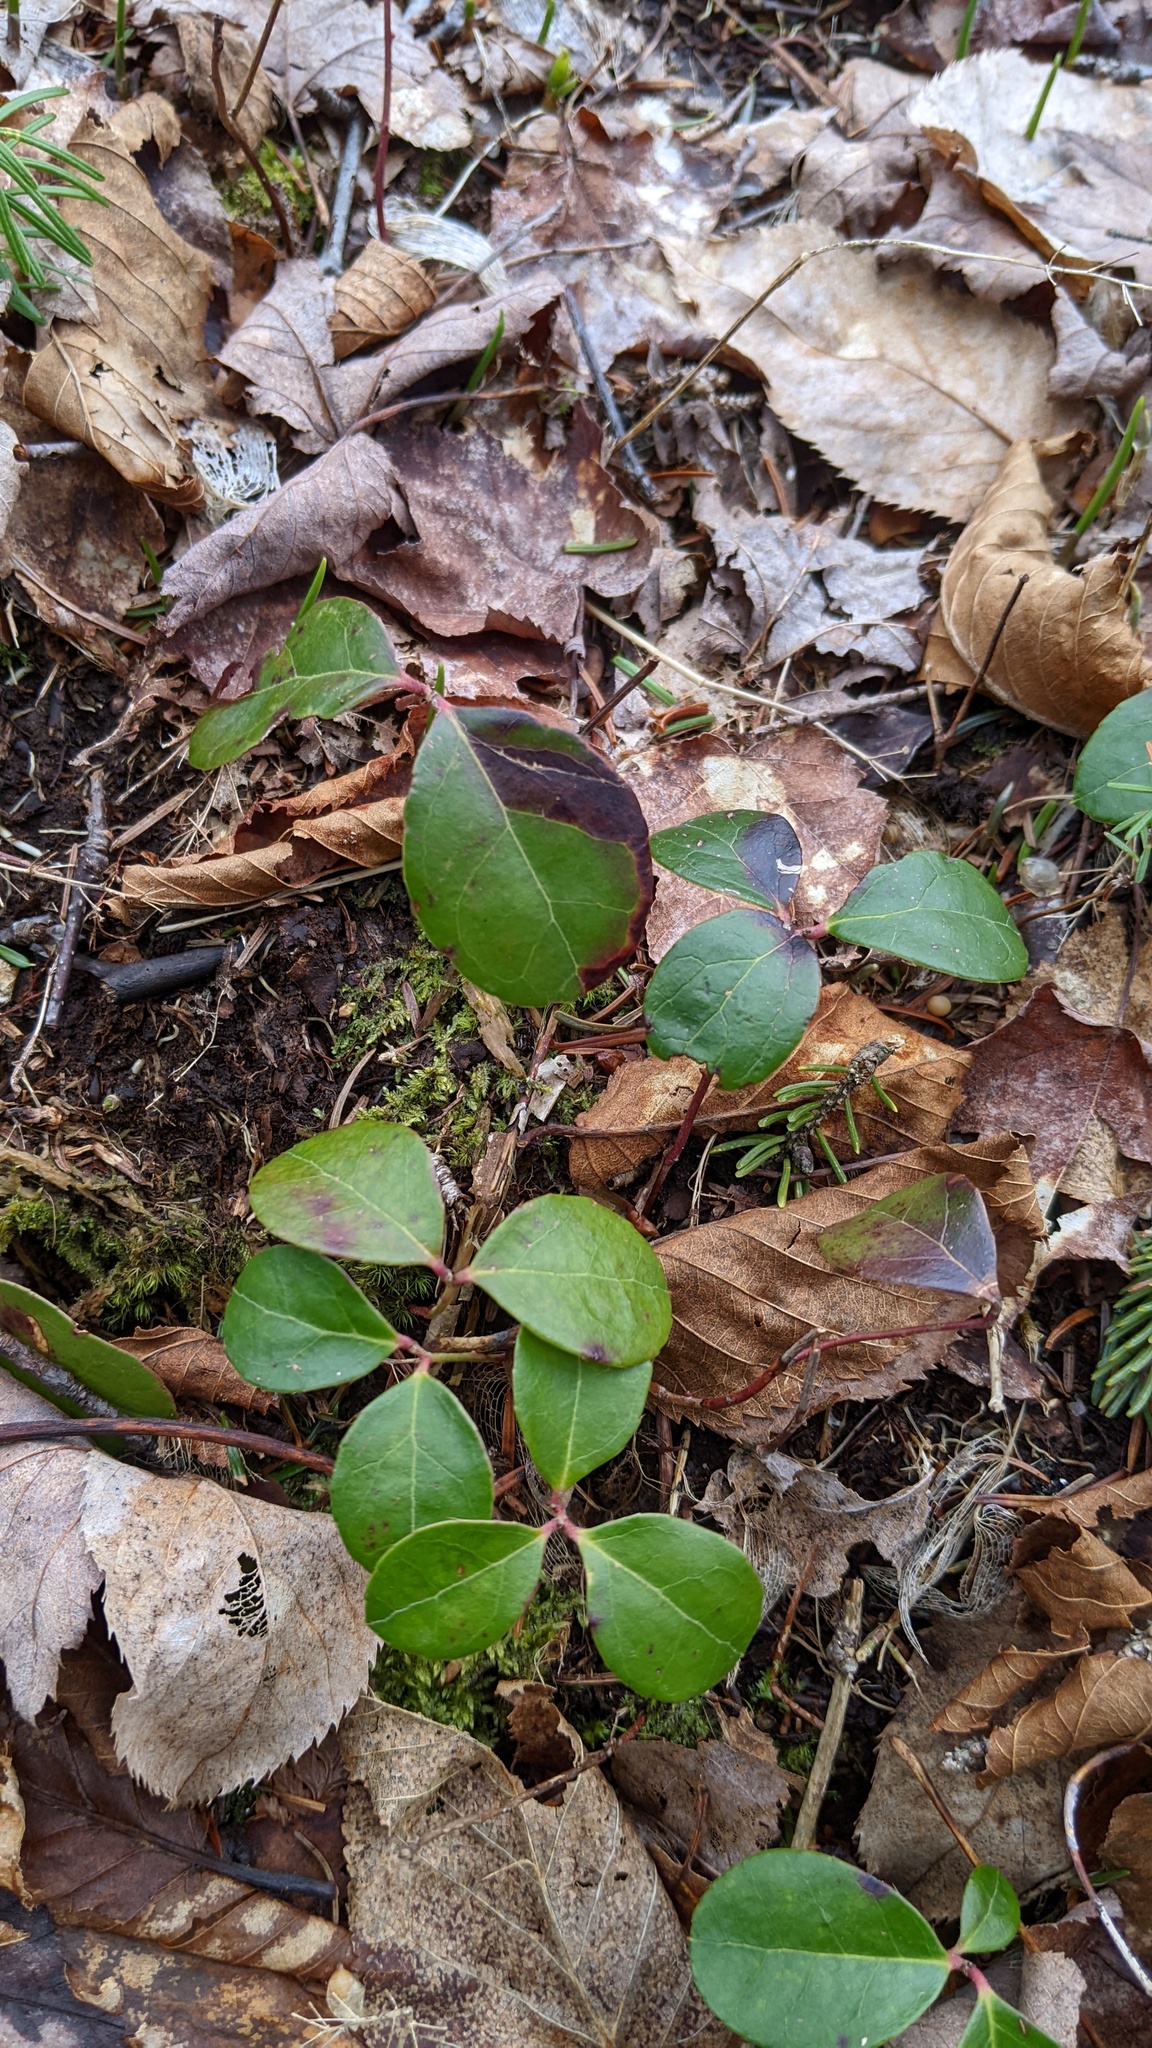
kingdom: Plantae
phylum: Tracheophyta
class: Magnoliopsida
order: Ericales
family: Ericaceae
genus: Gaultheria
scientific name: Gaultheria procumbens
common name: Checkerberry
